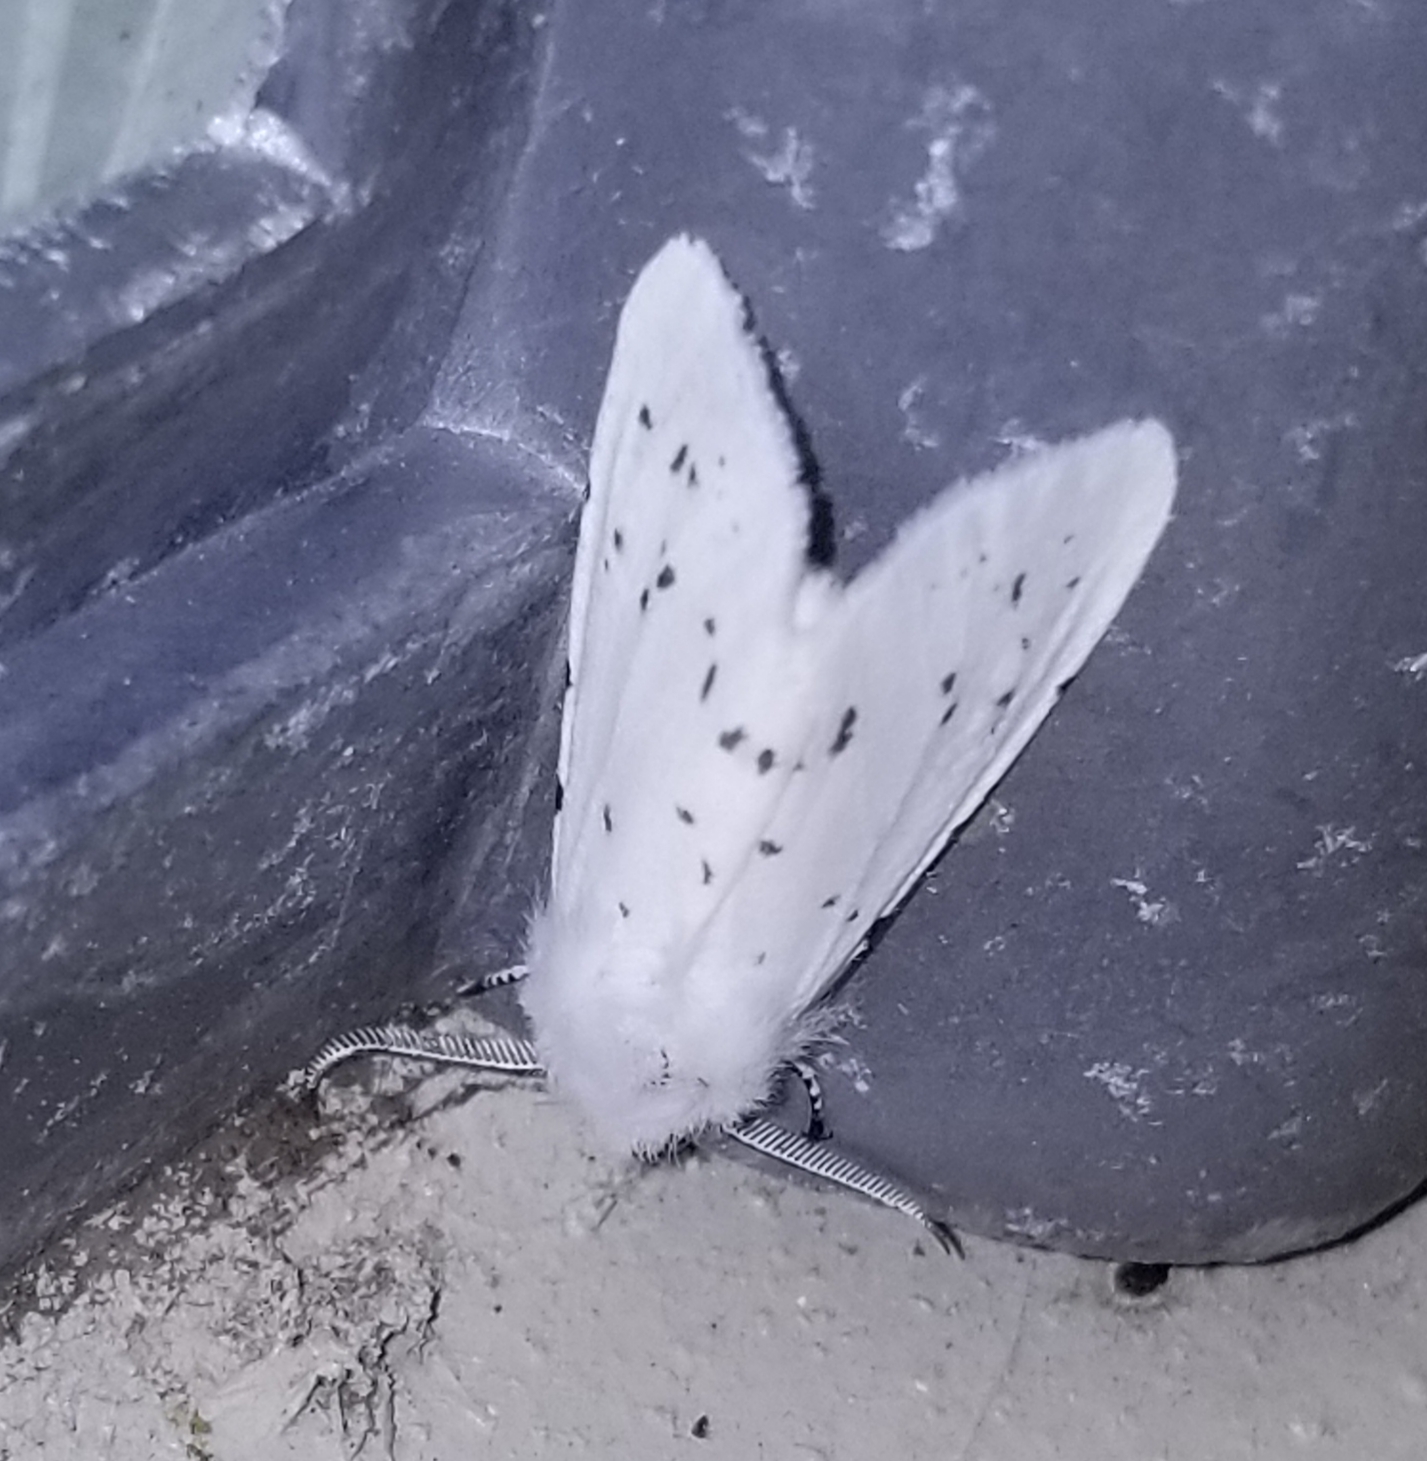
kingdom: Animalia
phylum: Arthropoda
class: Insecta
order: Lepidoptera
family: Erebidae
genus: Hyphantria
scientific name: Hyphantria cunea
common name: American white moth
